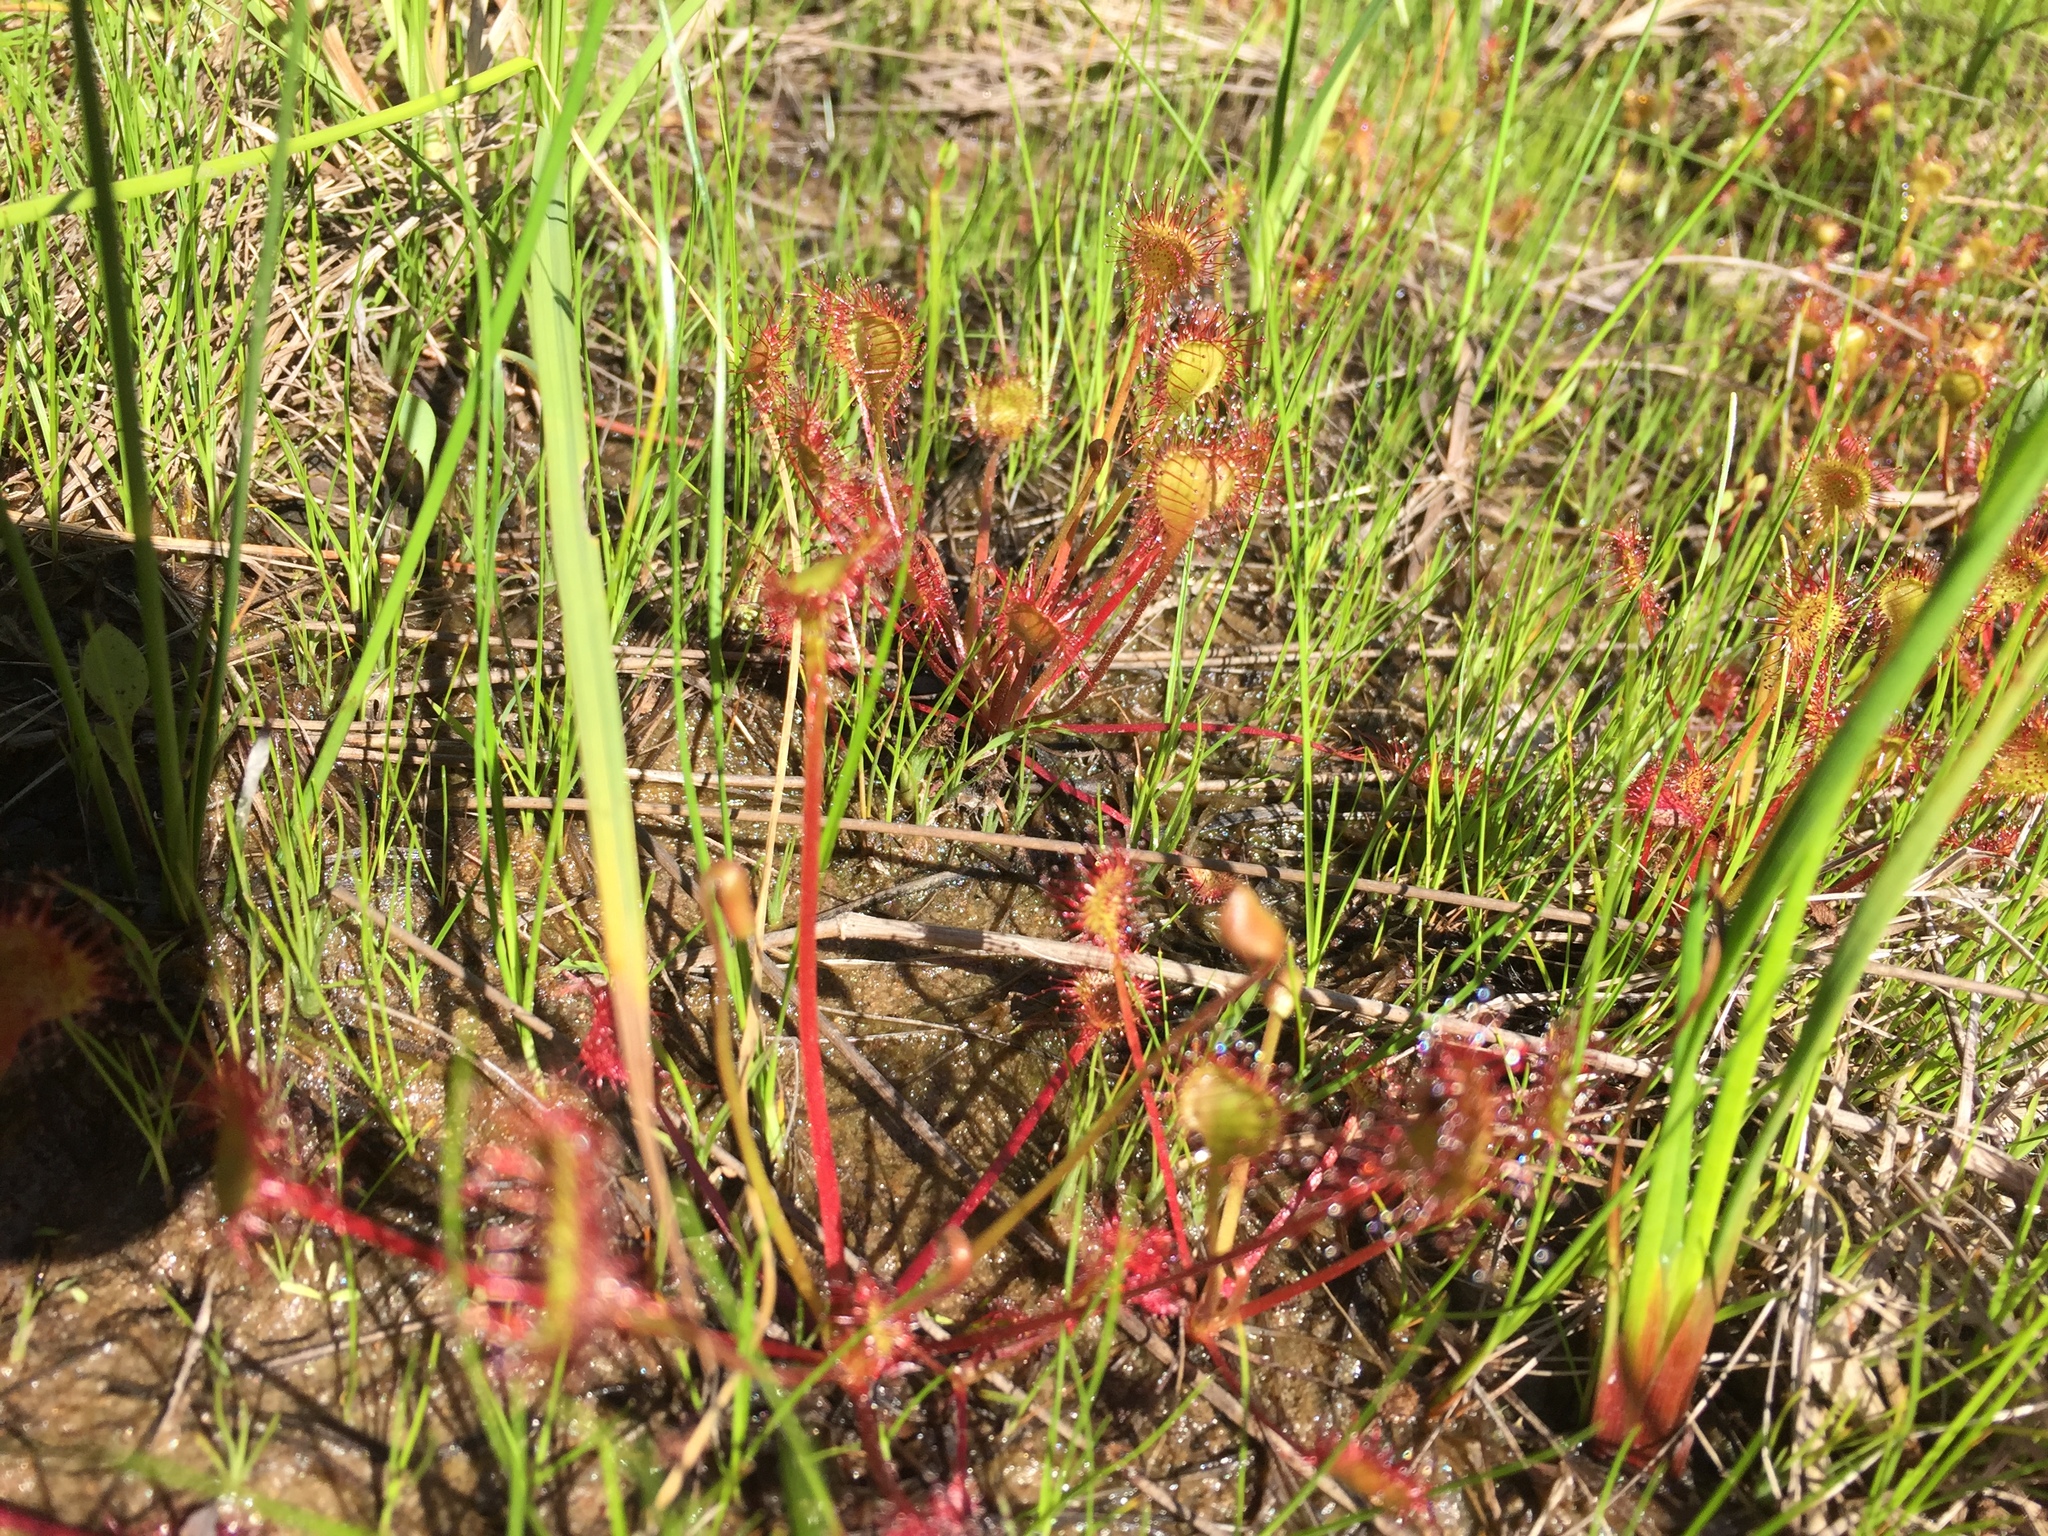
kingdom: Plantae
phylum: Tracheophyta
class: Magnoliopsida
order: Caryophyllales
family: Droseraceae
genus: Drosera
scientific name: Drosera rotundifolia
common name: Round-leaved sundew
